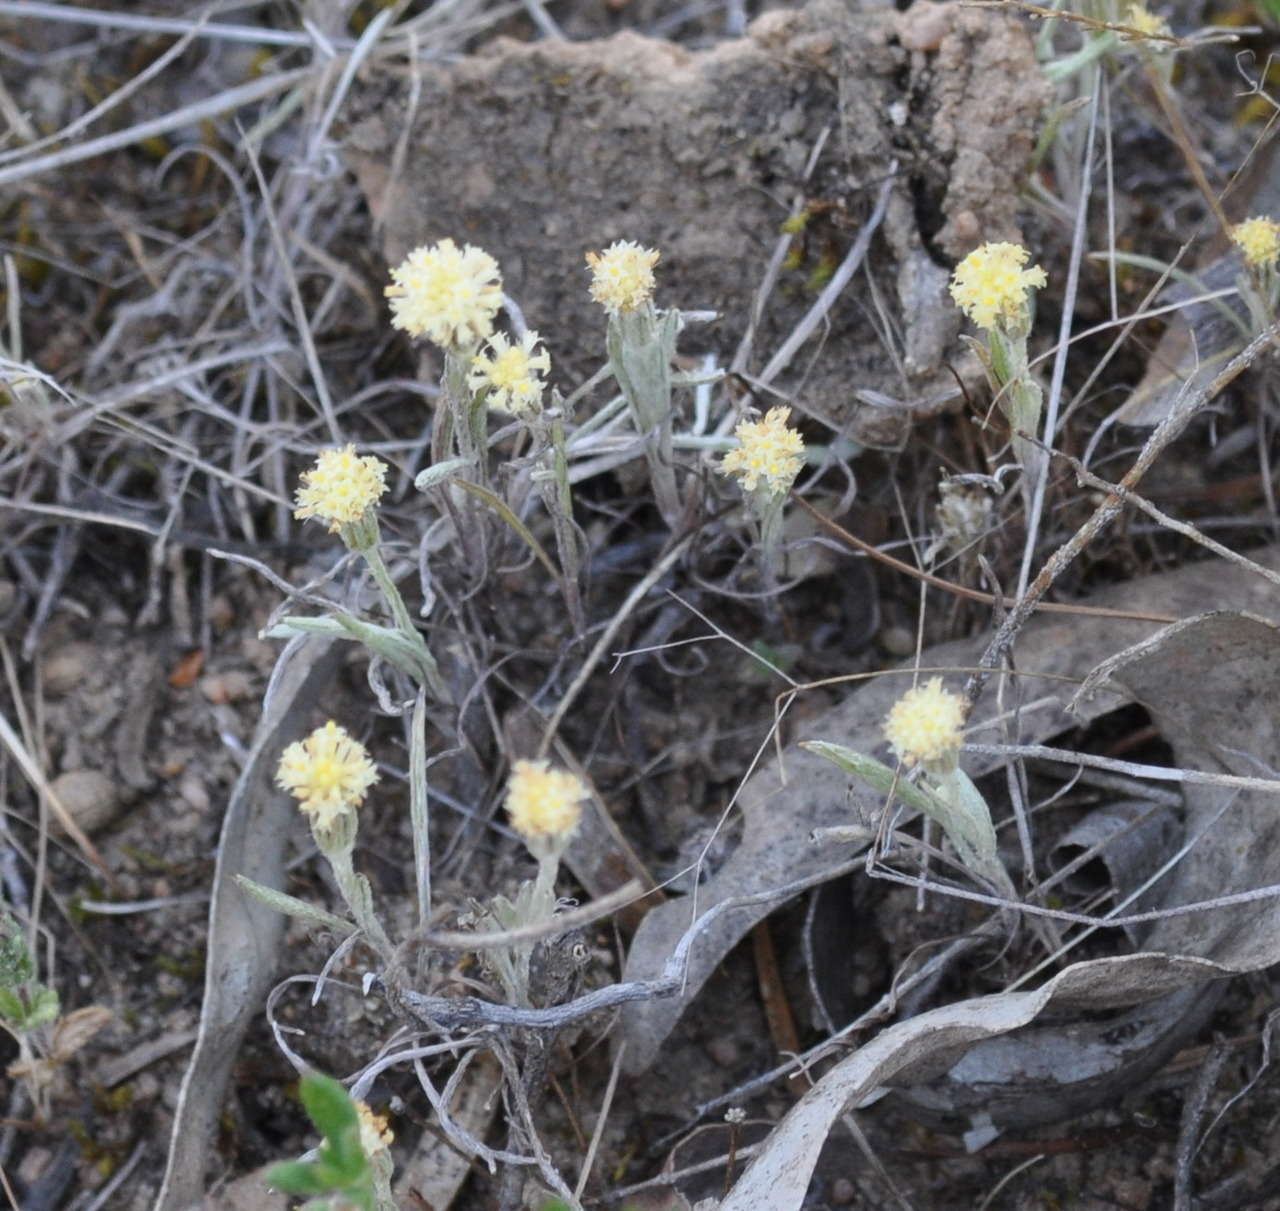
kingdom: Plantae
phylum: Tracheophyta
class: Magnoliopsida
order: Asterales
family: Asteraceae
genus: Millotia
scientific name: Millotia tenuifolia
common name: Soft millotia
